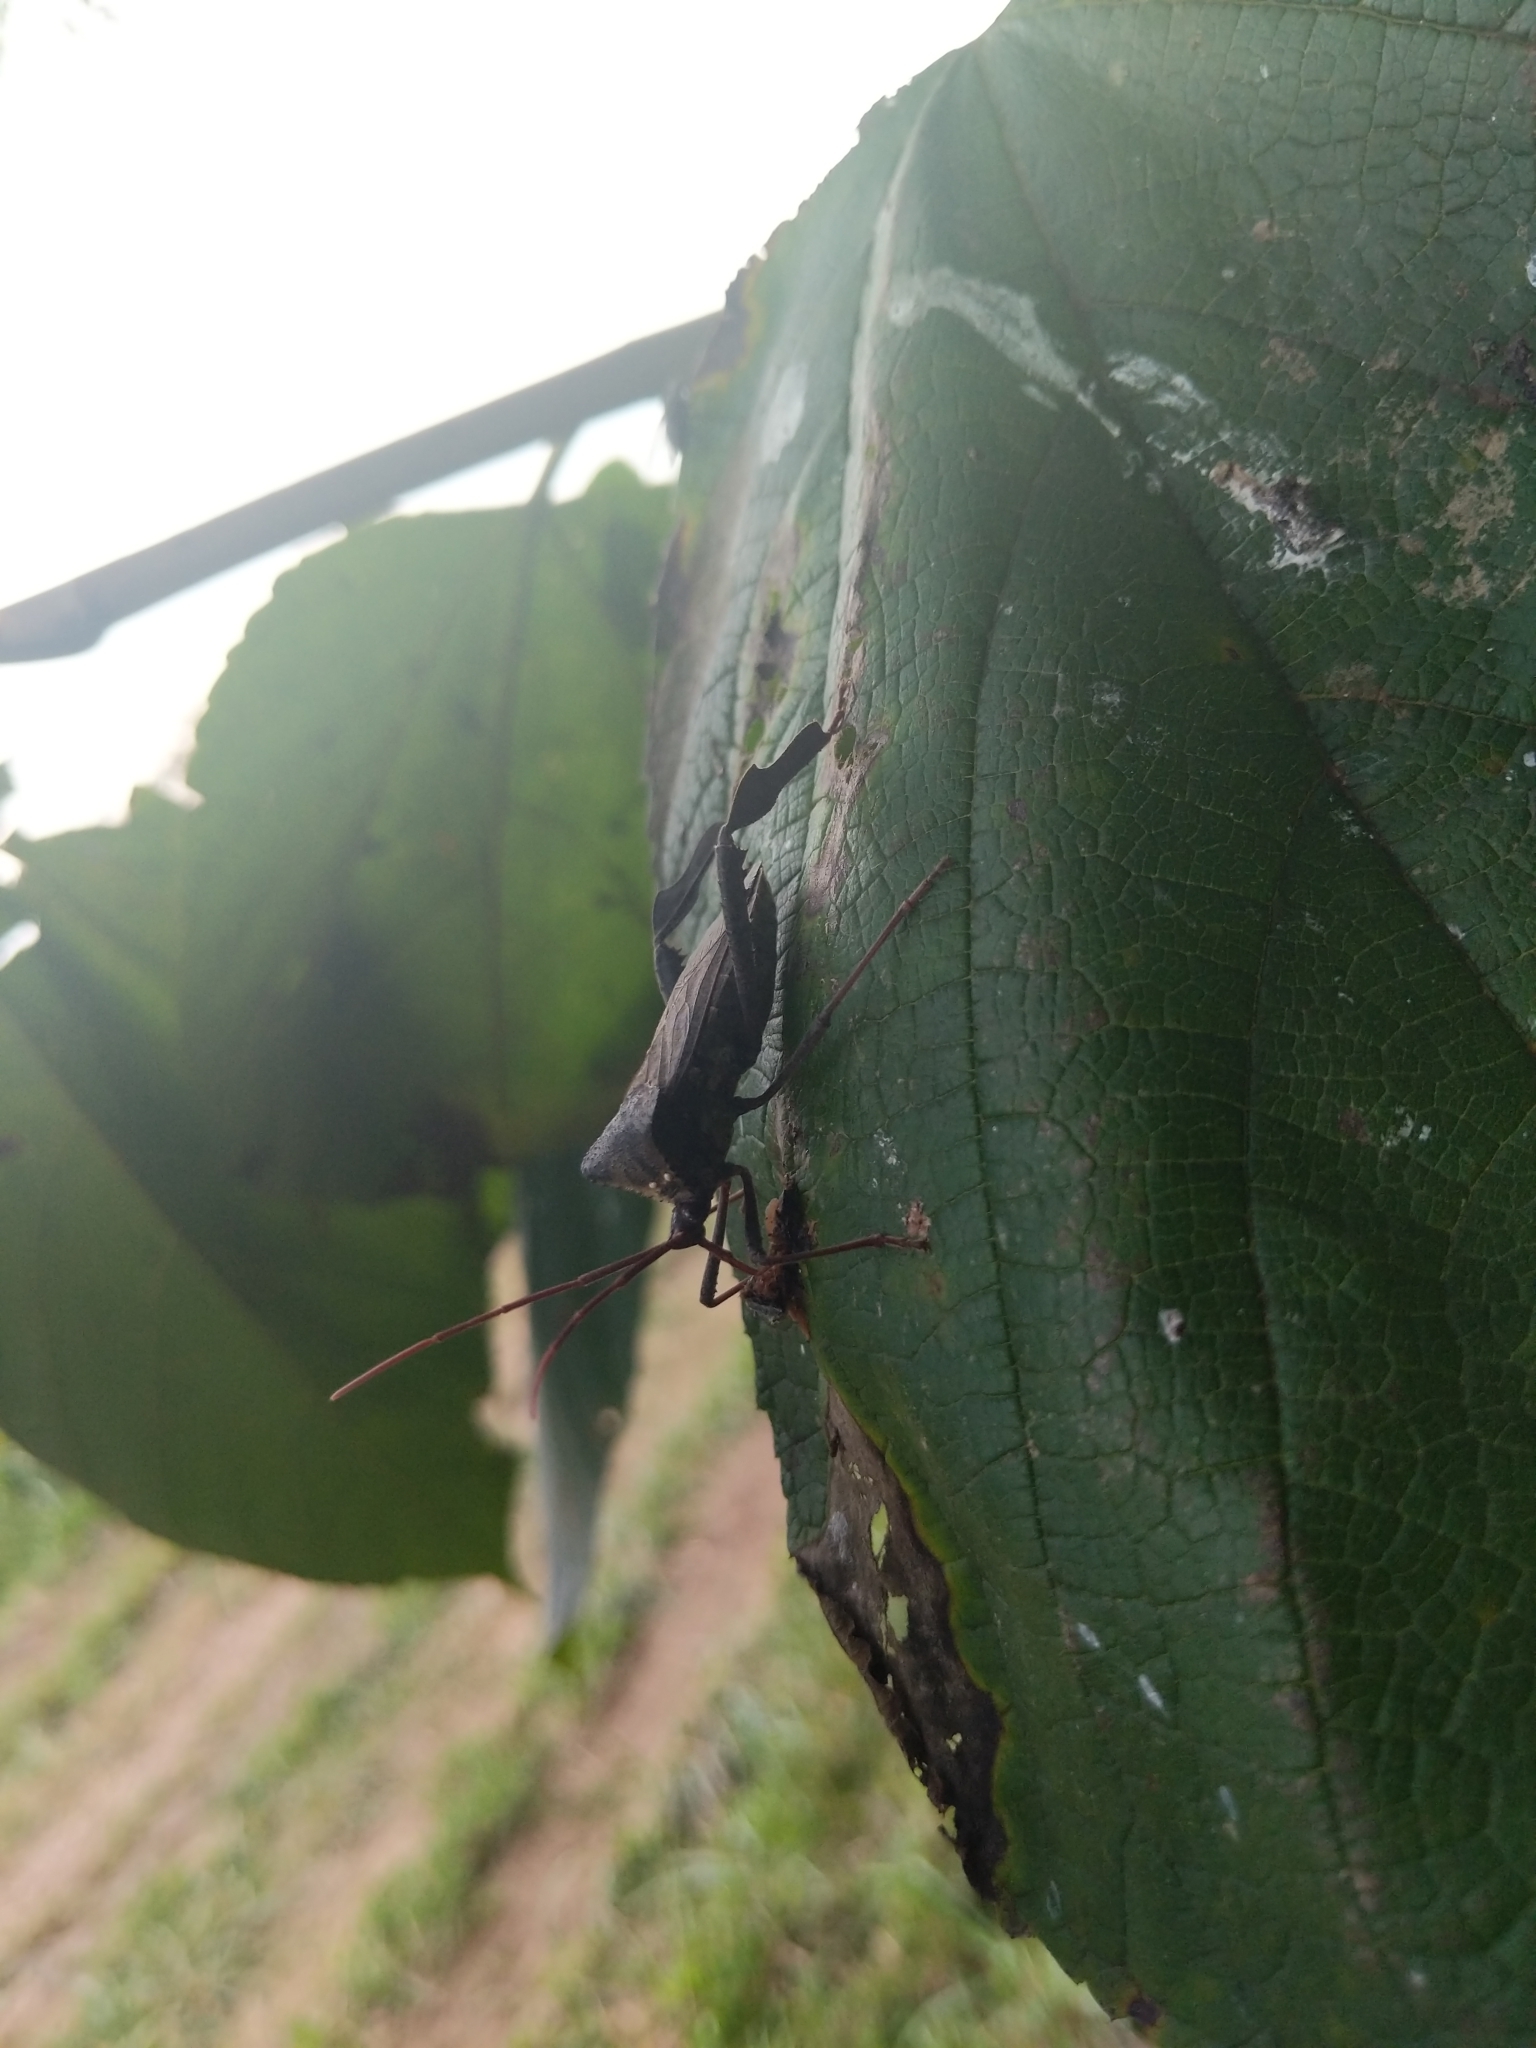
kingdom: Animalia
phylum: Arthropoda
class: Insecta
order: Hemiptera
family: Coreidae
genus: Acanthocephala
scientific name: Acanthocephala declivis
